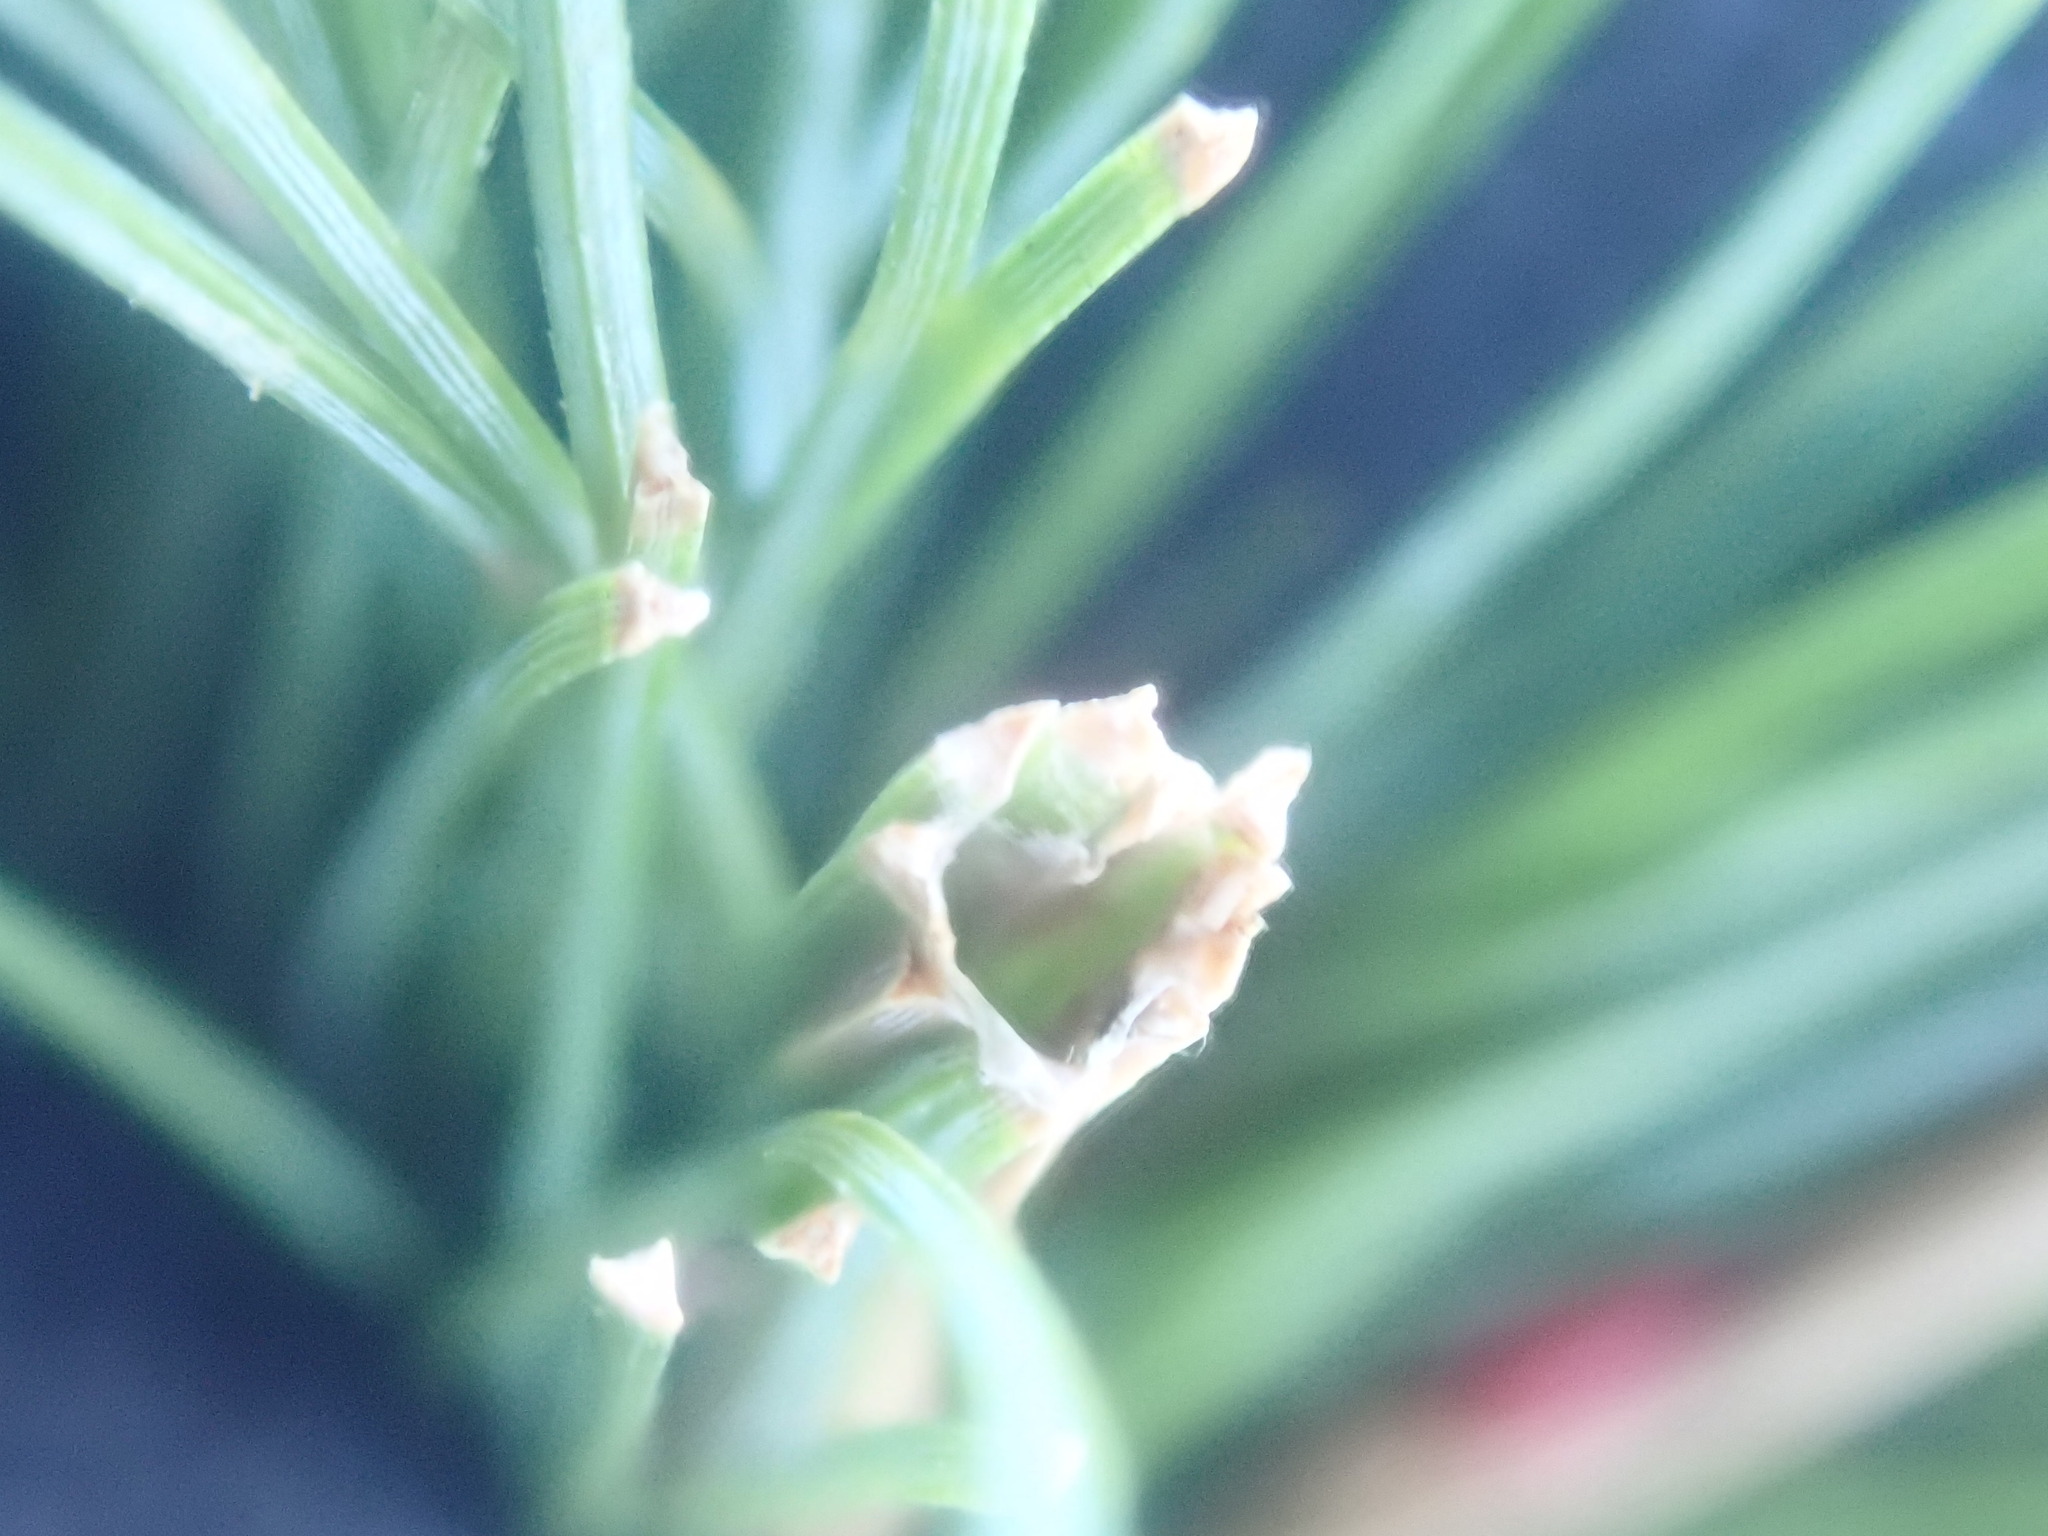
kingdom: Animalia
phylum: Arthropoda
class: Insecta
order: Lepidoptera
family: Tortricidae
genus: Argyrotaenia
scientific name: Argyrotaenia pinatubana
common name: Pine tube moth
